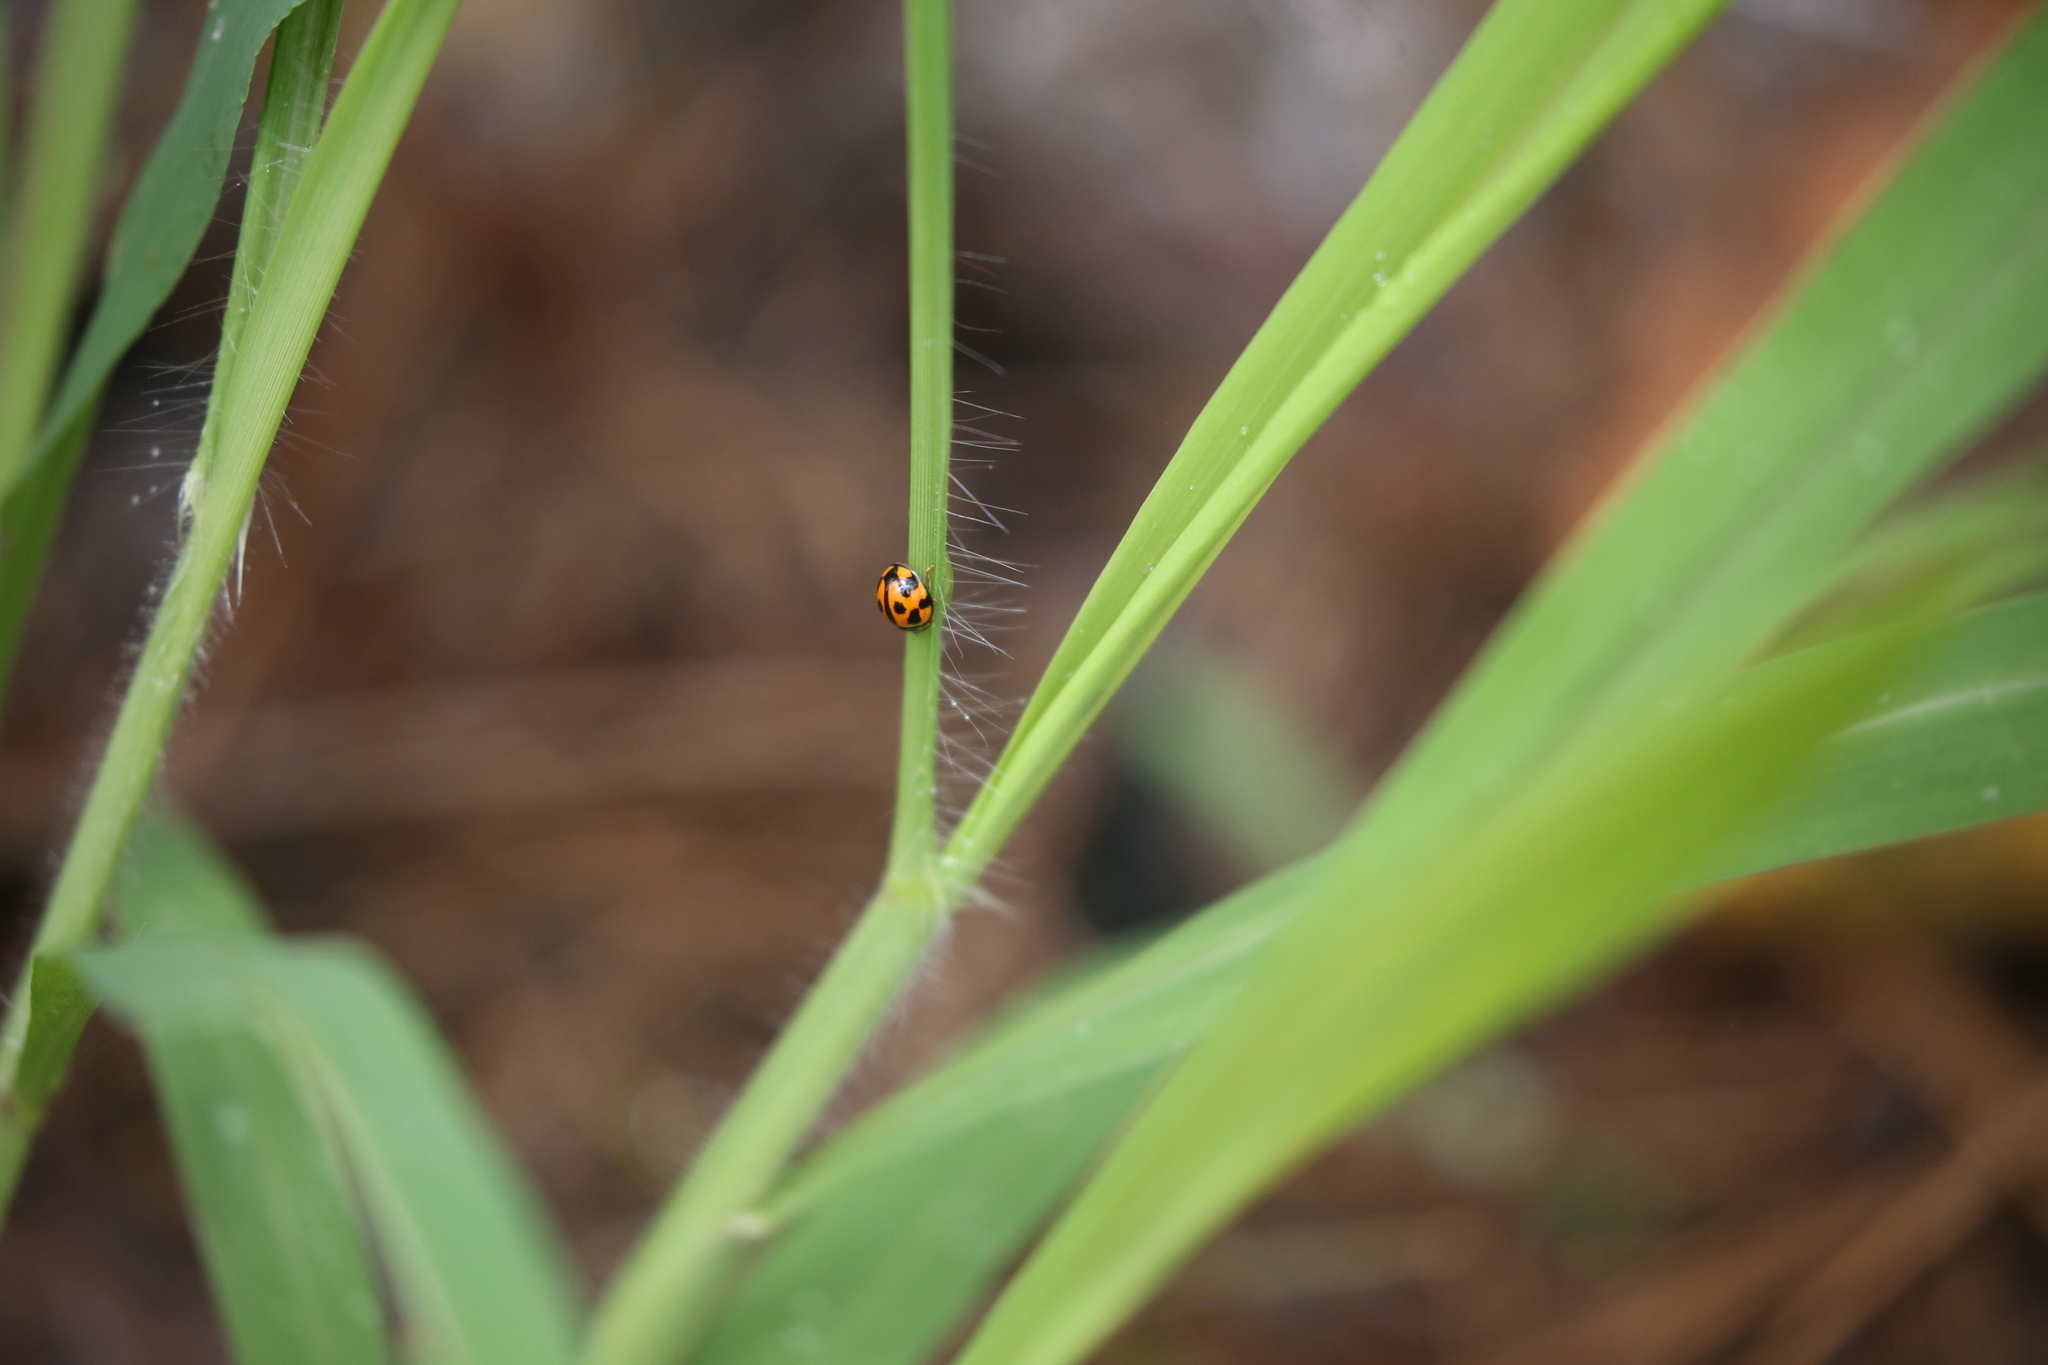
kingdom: Animalia
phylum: Arthropoda
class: Insecta
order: Coleoptera
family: Coccinellidae
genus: Coelophora
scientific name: Coelophora inaequalis
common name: Common australian lady beetle
